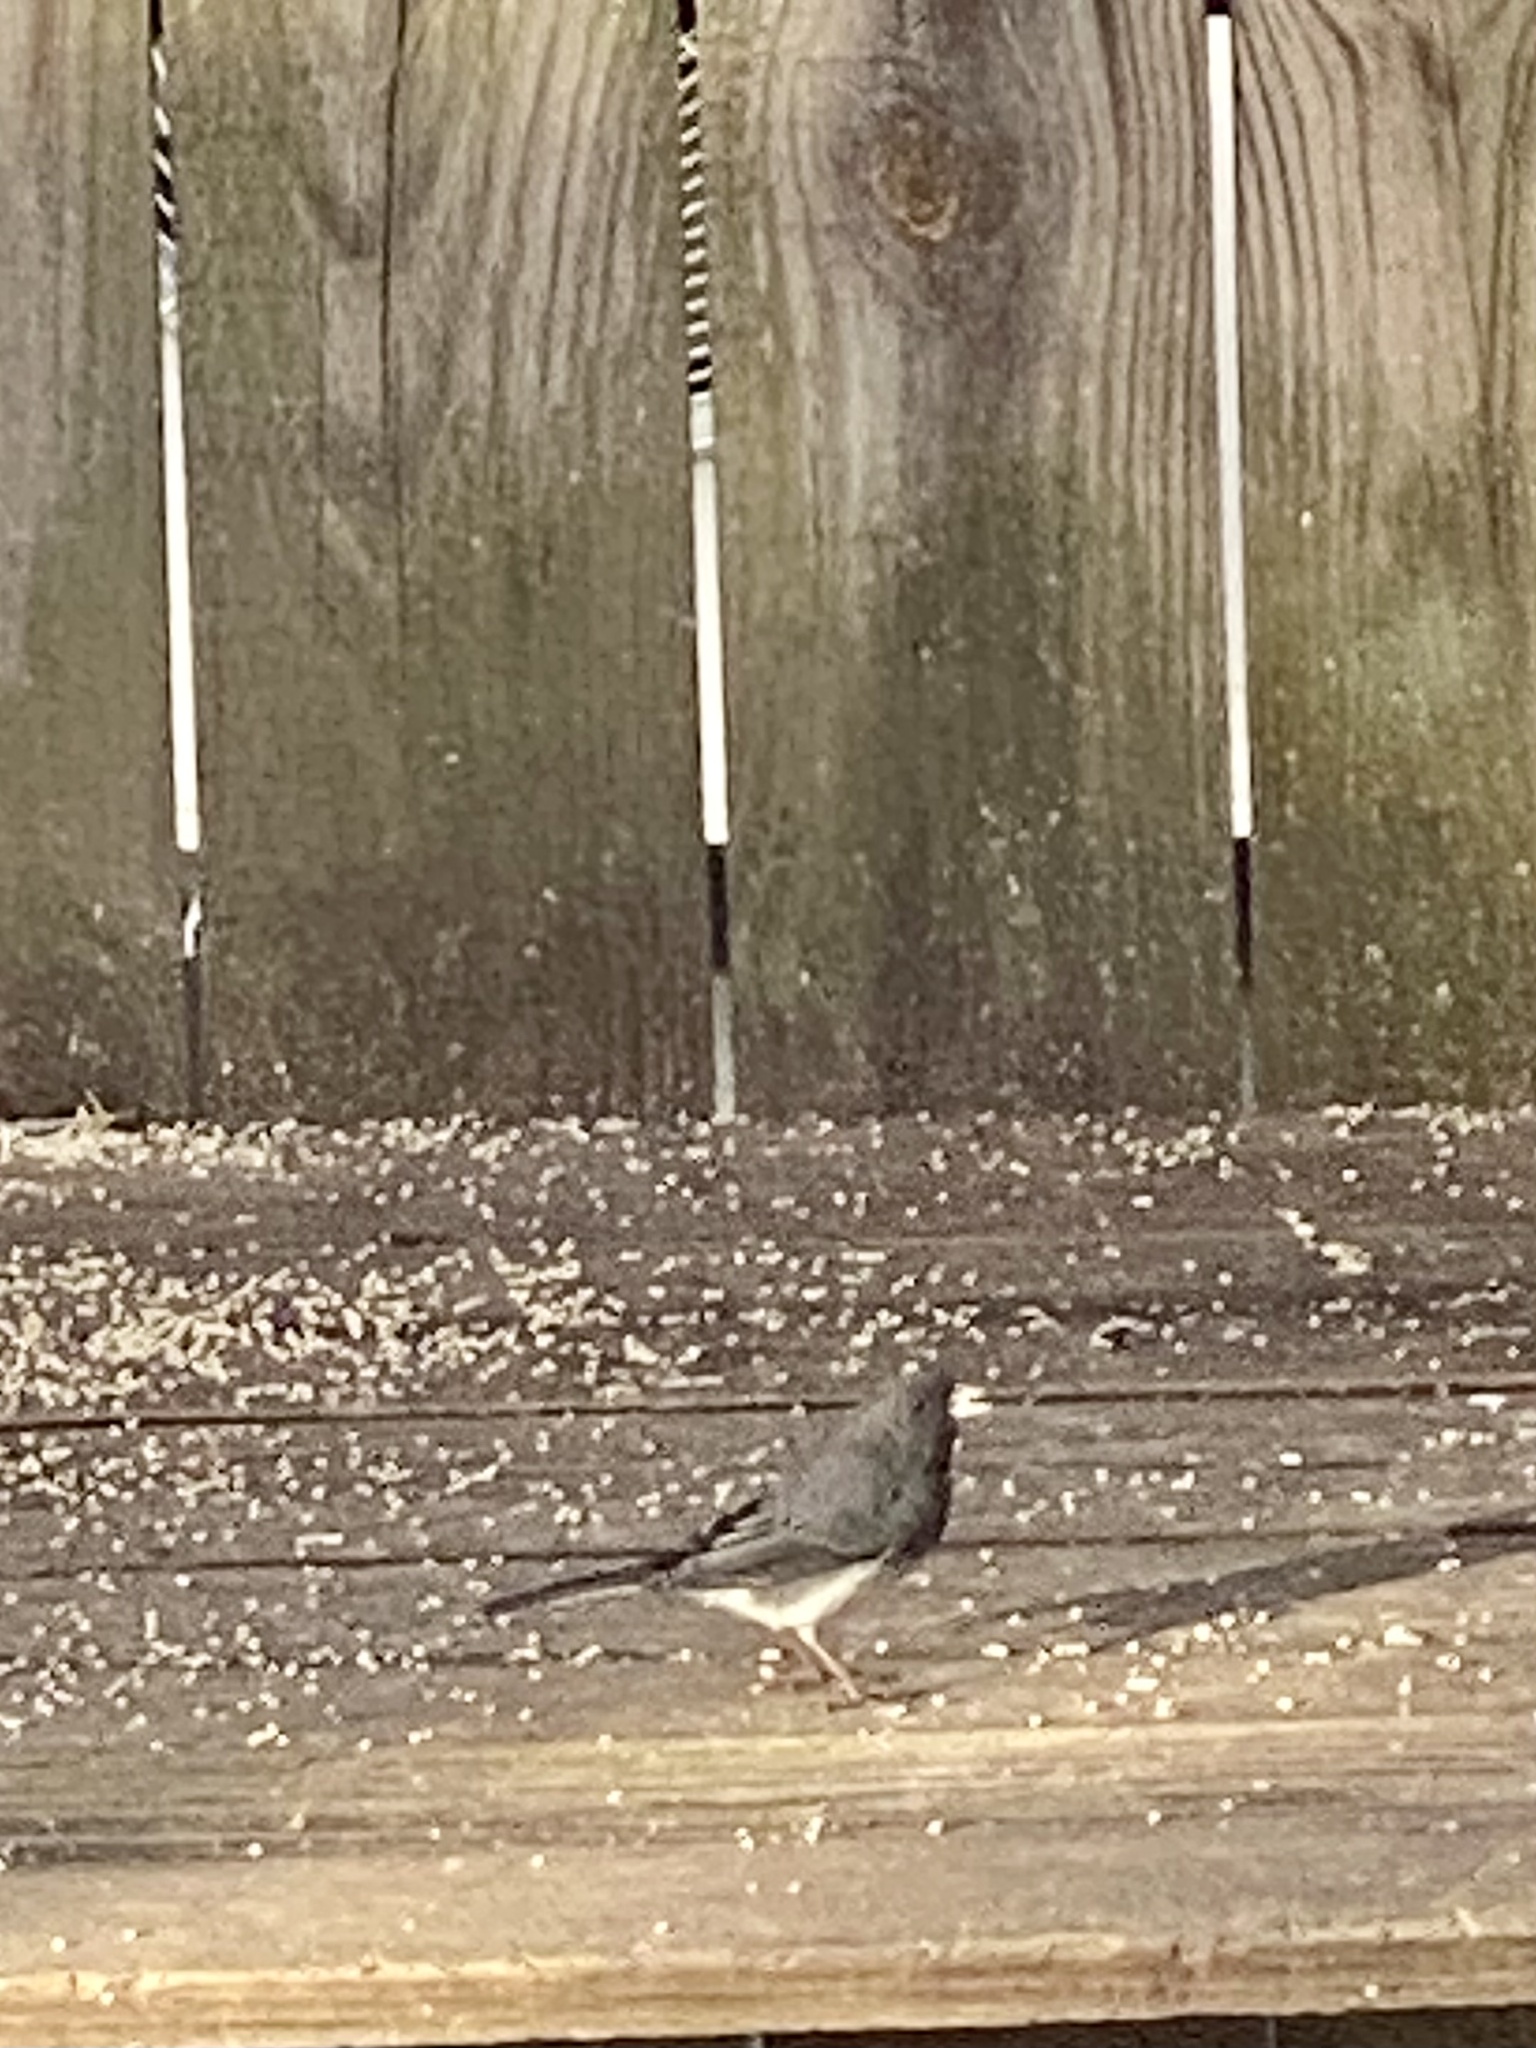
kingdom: Animalia
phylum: Chordata
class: Aves
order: Passeriformes
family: Passerellidae
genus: Junco
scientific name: Junco hyemalis
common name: Dark-eyed junco
